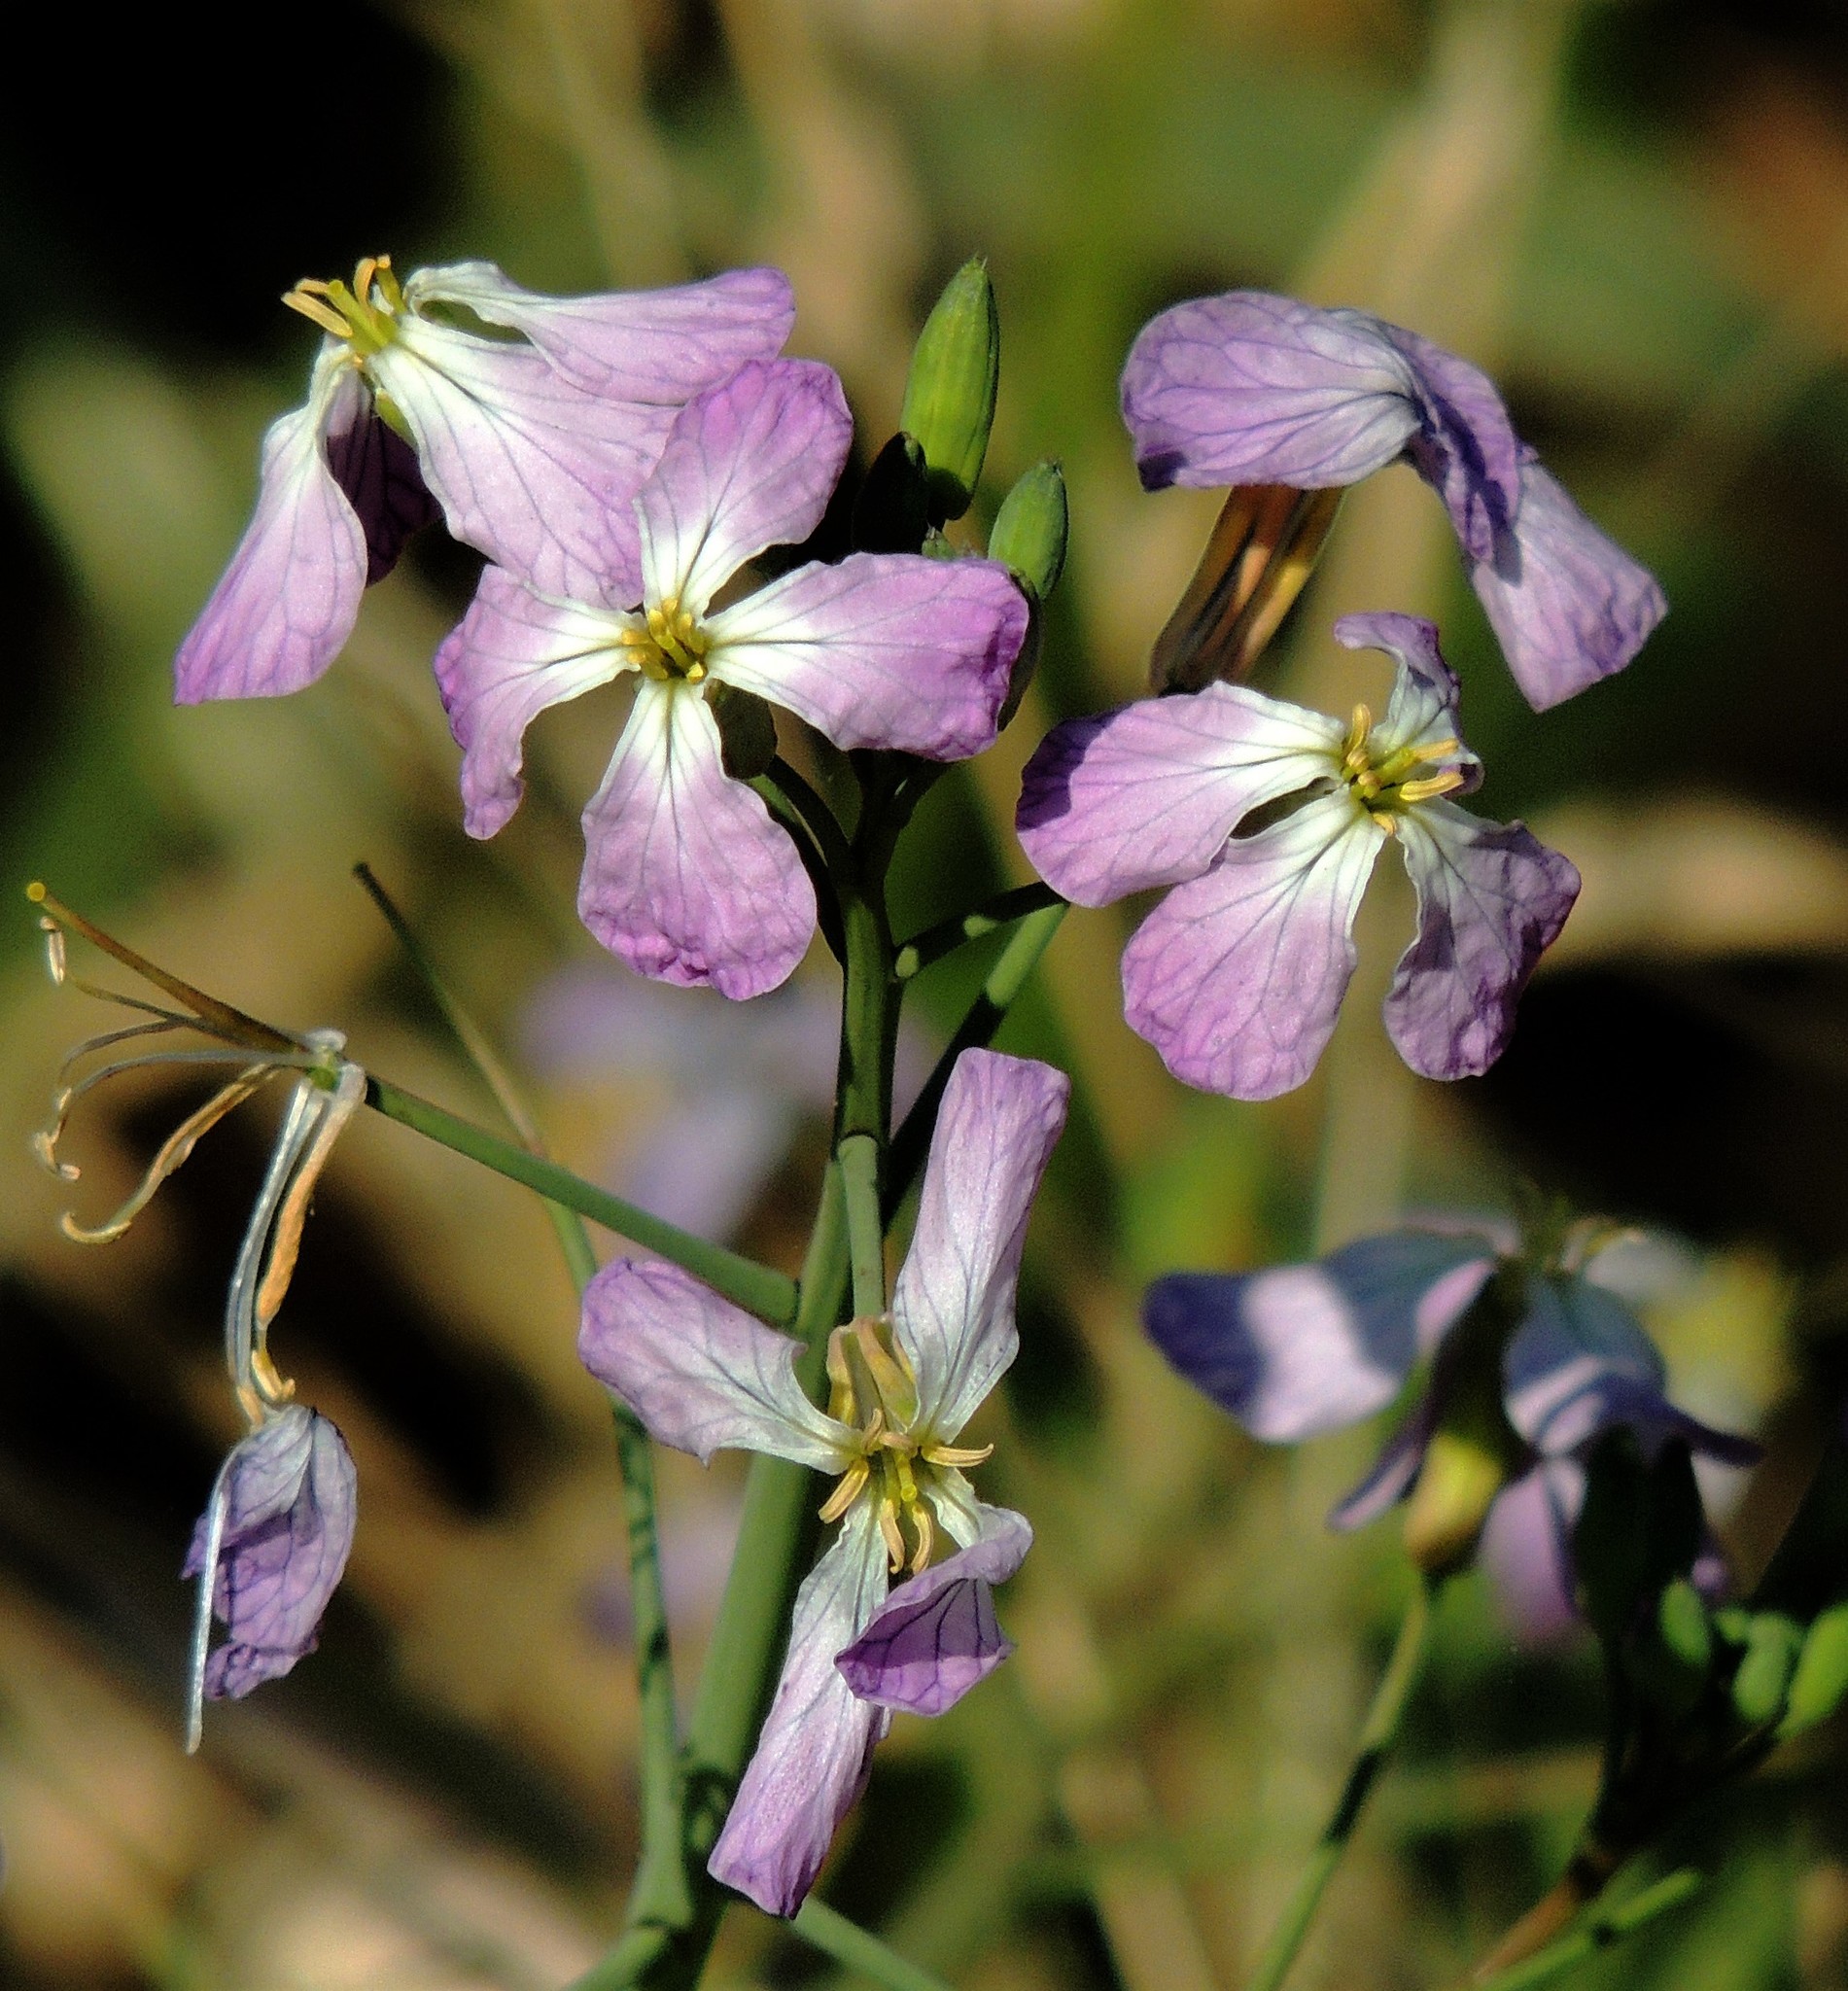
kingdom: Plantae
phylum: Tracheophyta
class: Magnoliopsida
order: Brassicales
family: Brassicaceae
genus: Raphanus
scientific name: Raphanus sativus
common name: Cultivated radish
